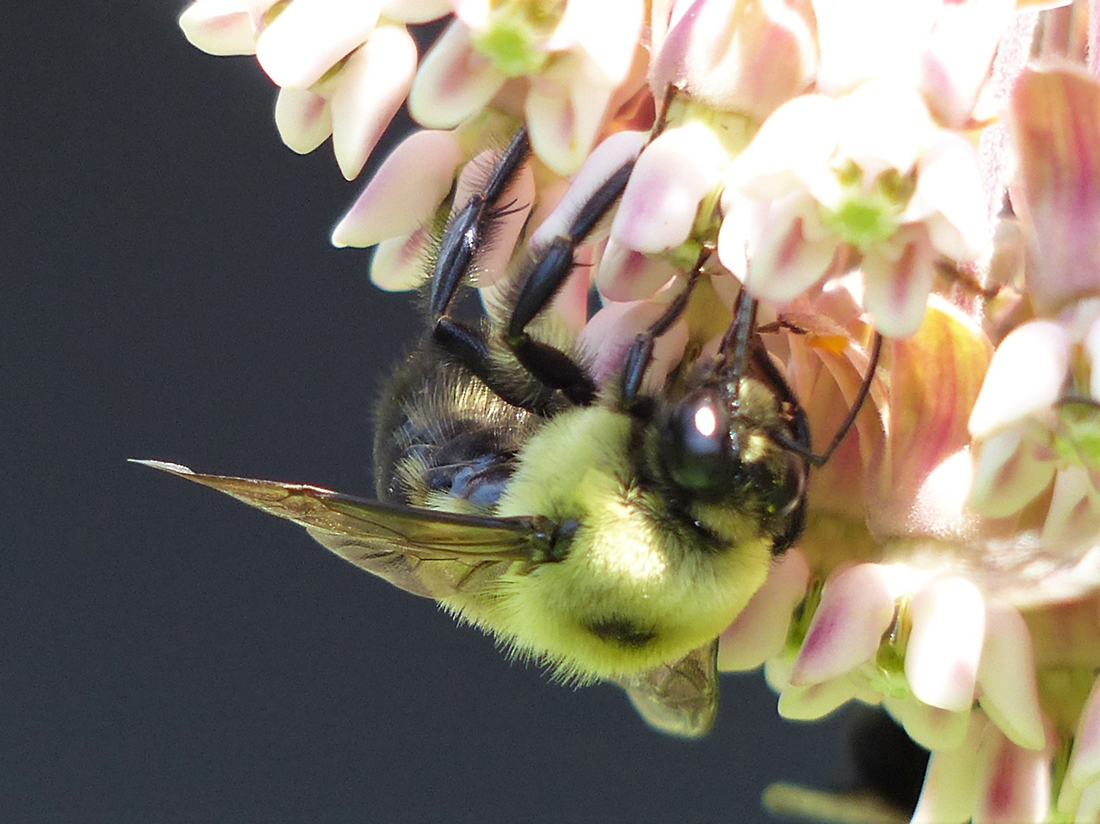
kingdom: Animalia
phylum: Arthropoda
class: Insecta
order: Hymenoptera
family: Apidae
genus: Bombus
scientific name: Bombus griseocollis
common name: Brown-belted bumble bee
